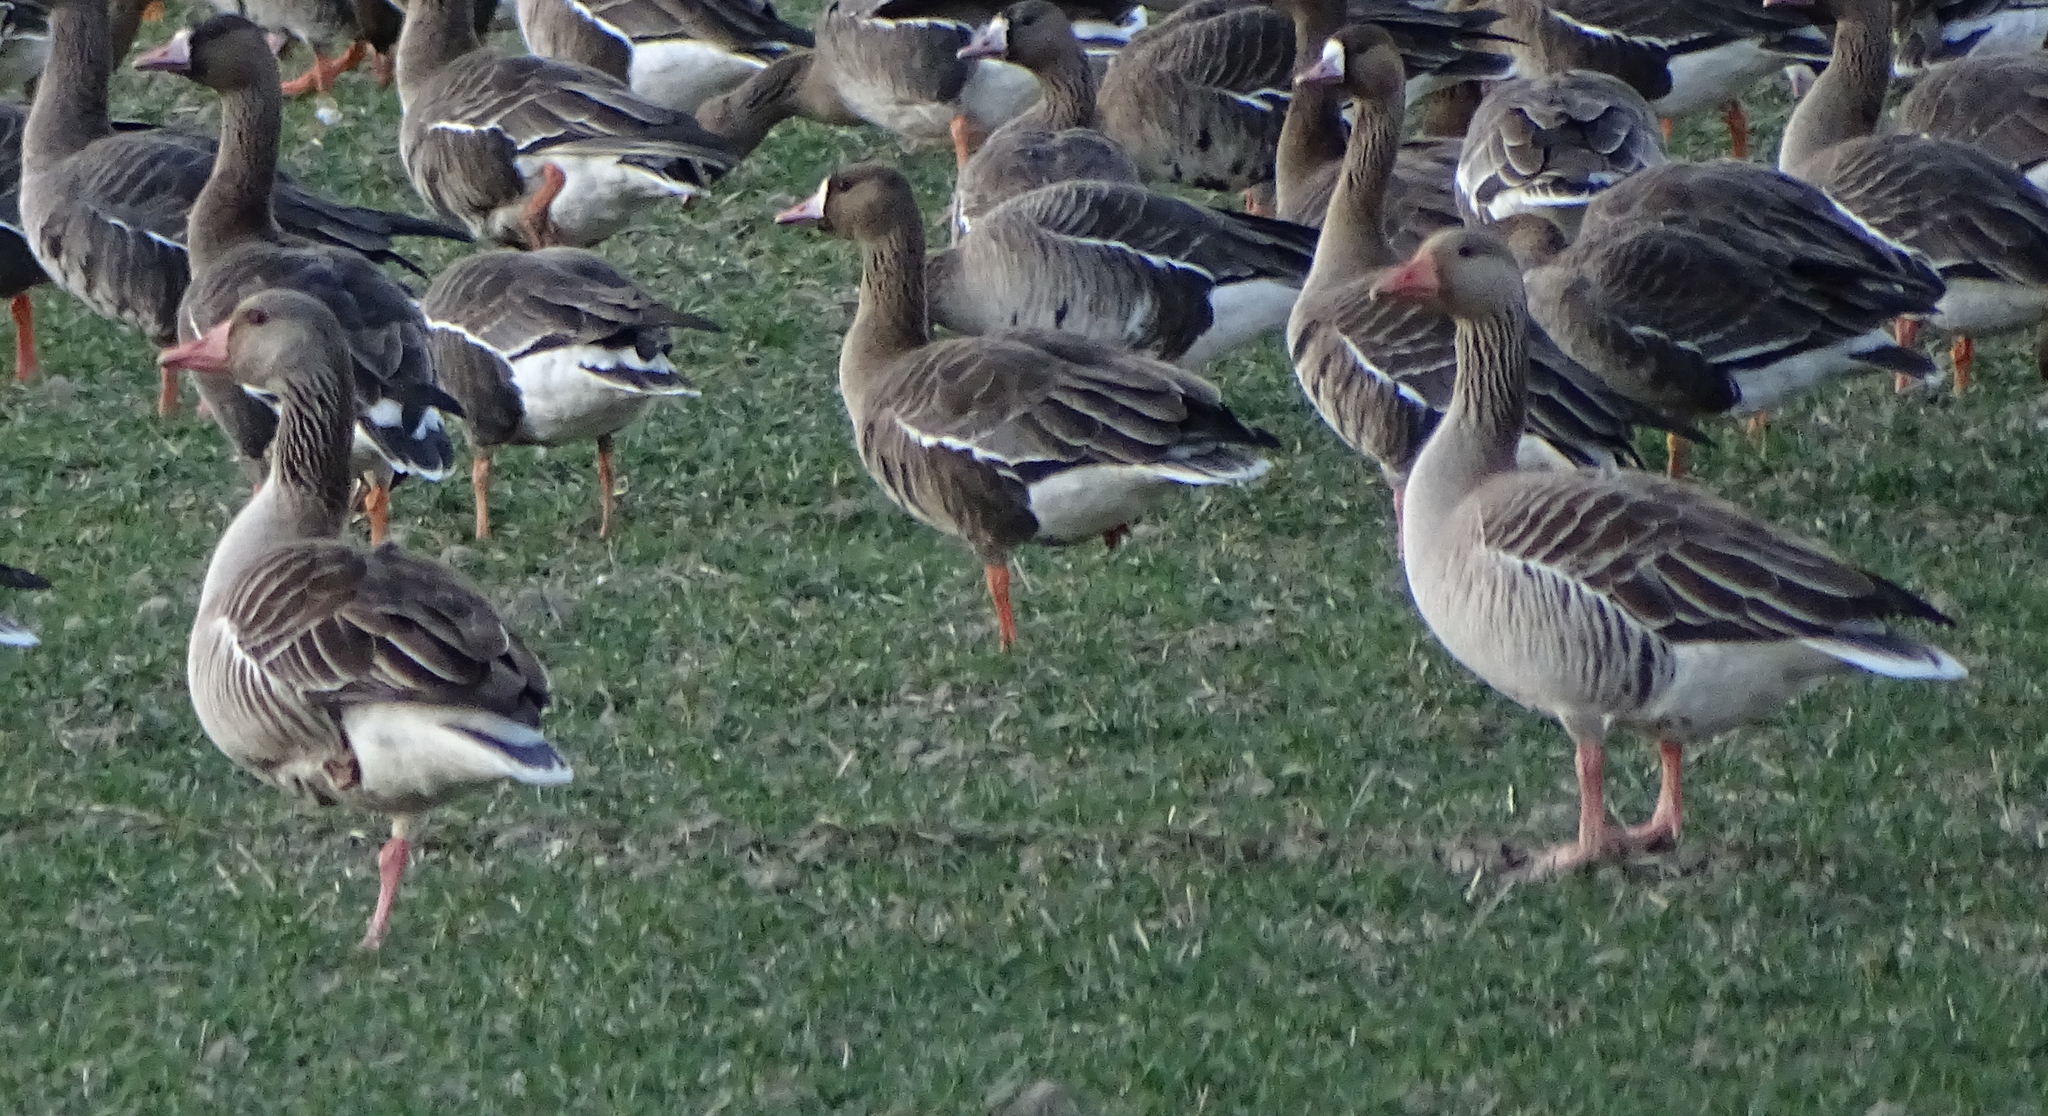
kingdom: Animalia
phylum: Chordata
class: Aves
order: Anseriformes
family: Anatidae
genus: Anser
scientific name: Anser anser
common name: Greylag goose
